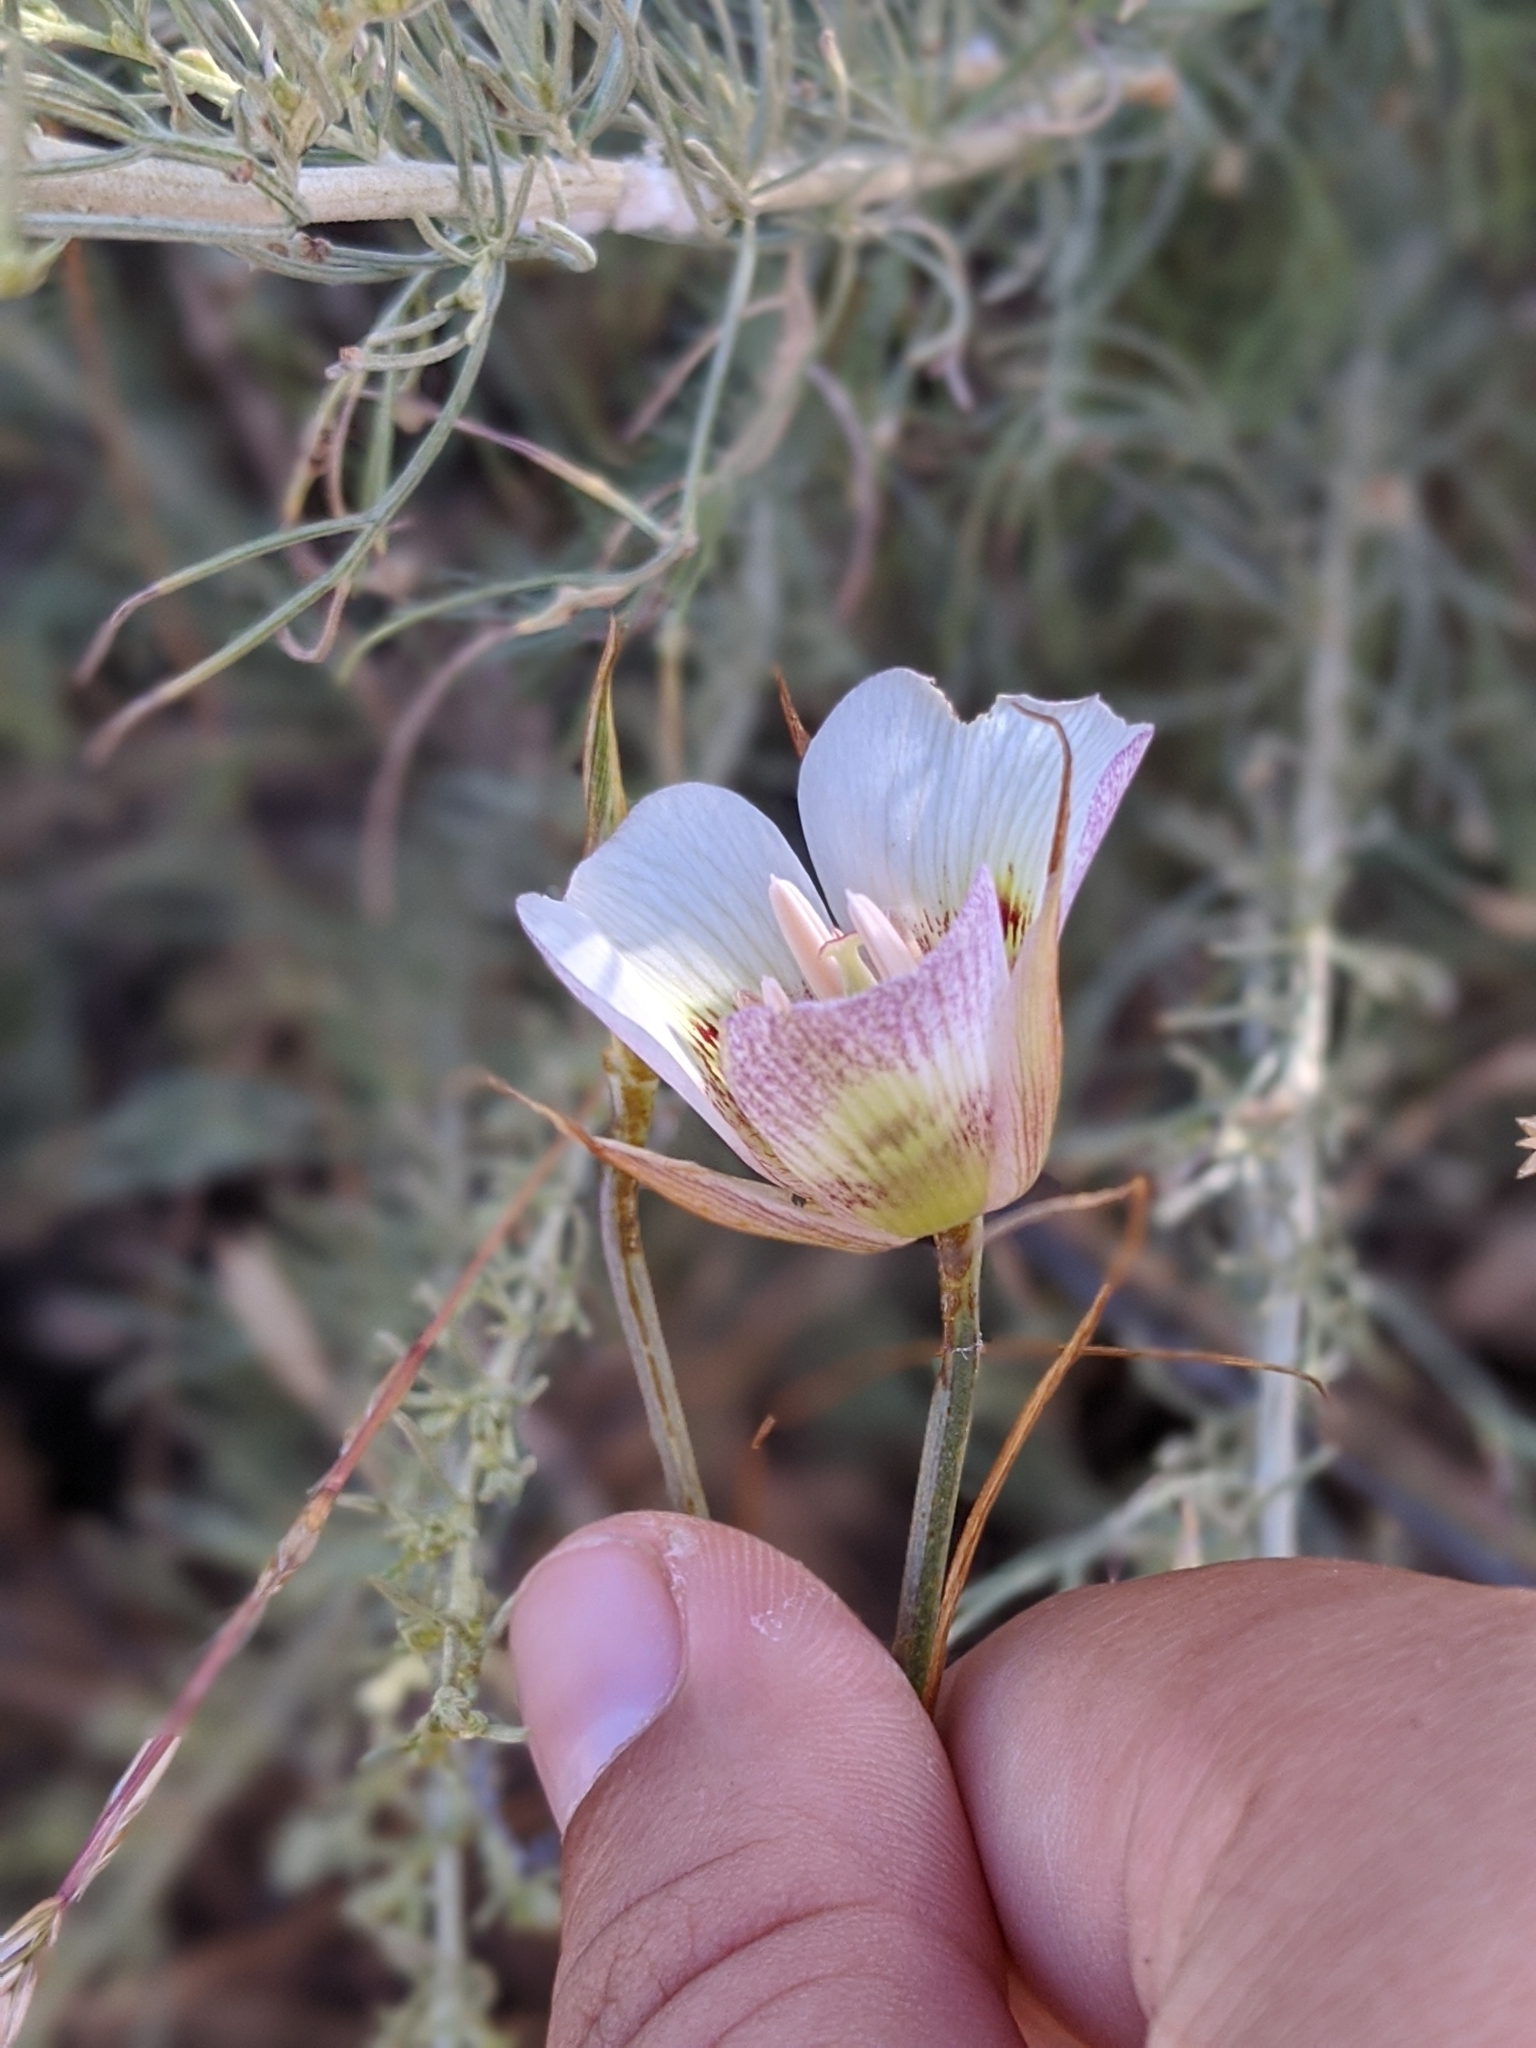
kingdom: Plantae
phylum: Tracheophyta
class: Liliopsida
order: Liliales
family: Liliaceae
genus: Calochortus
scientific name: Calochortus argillosus
